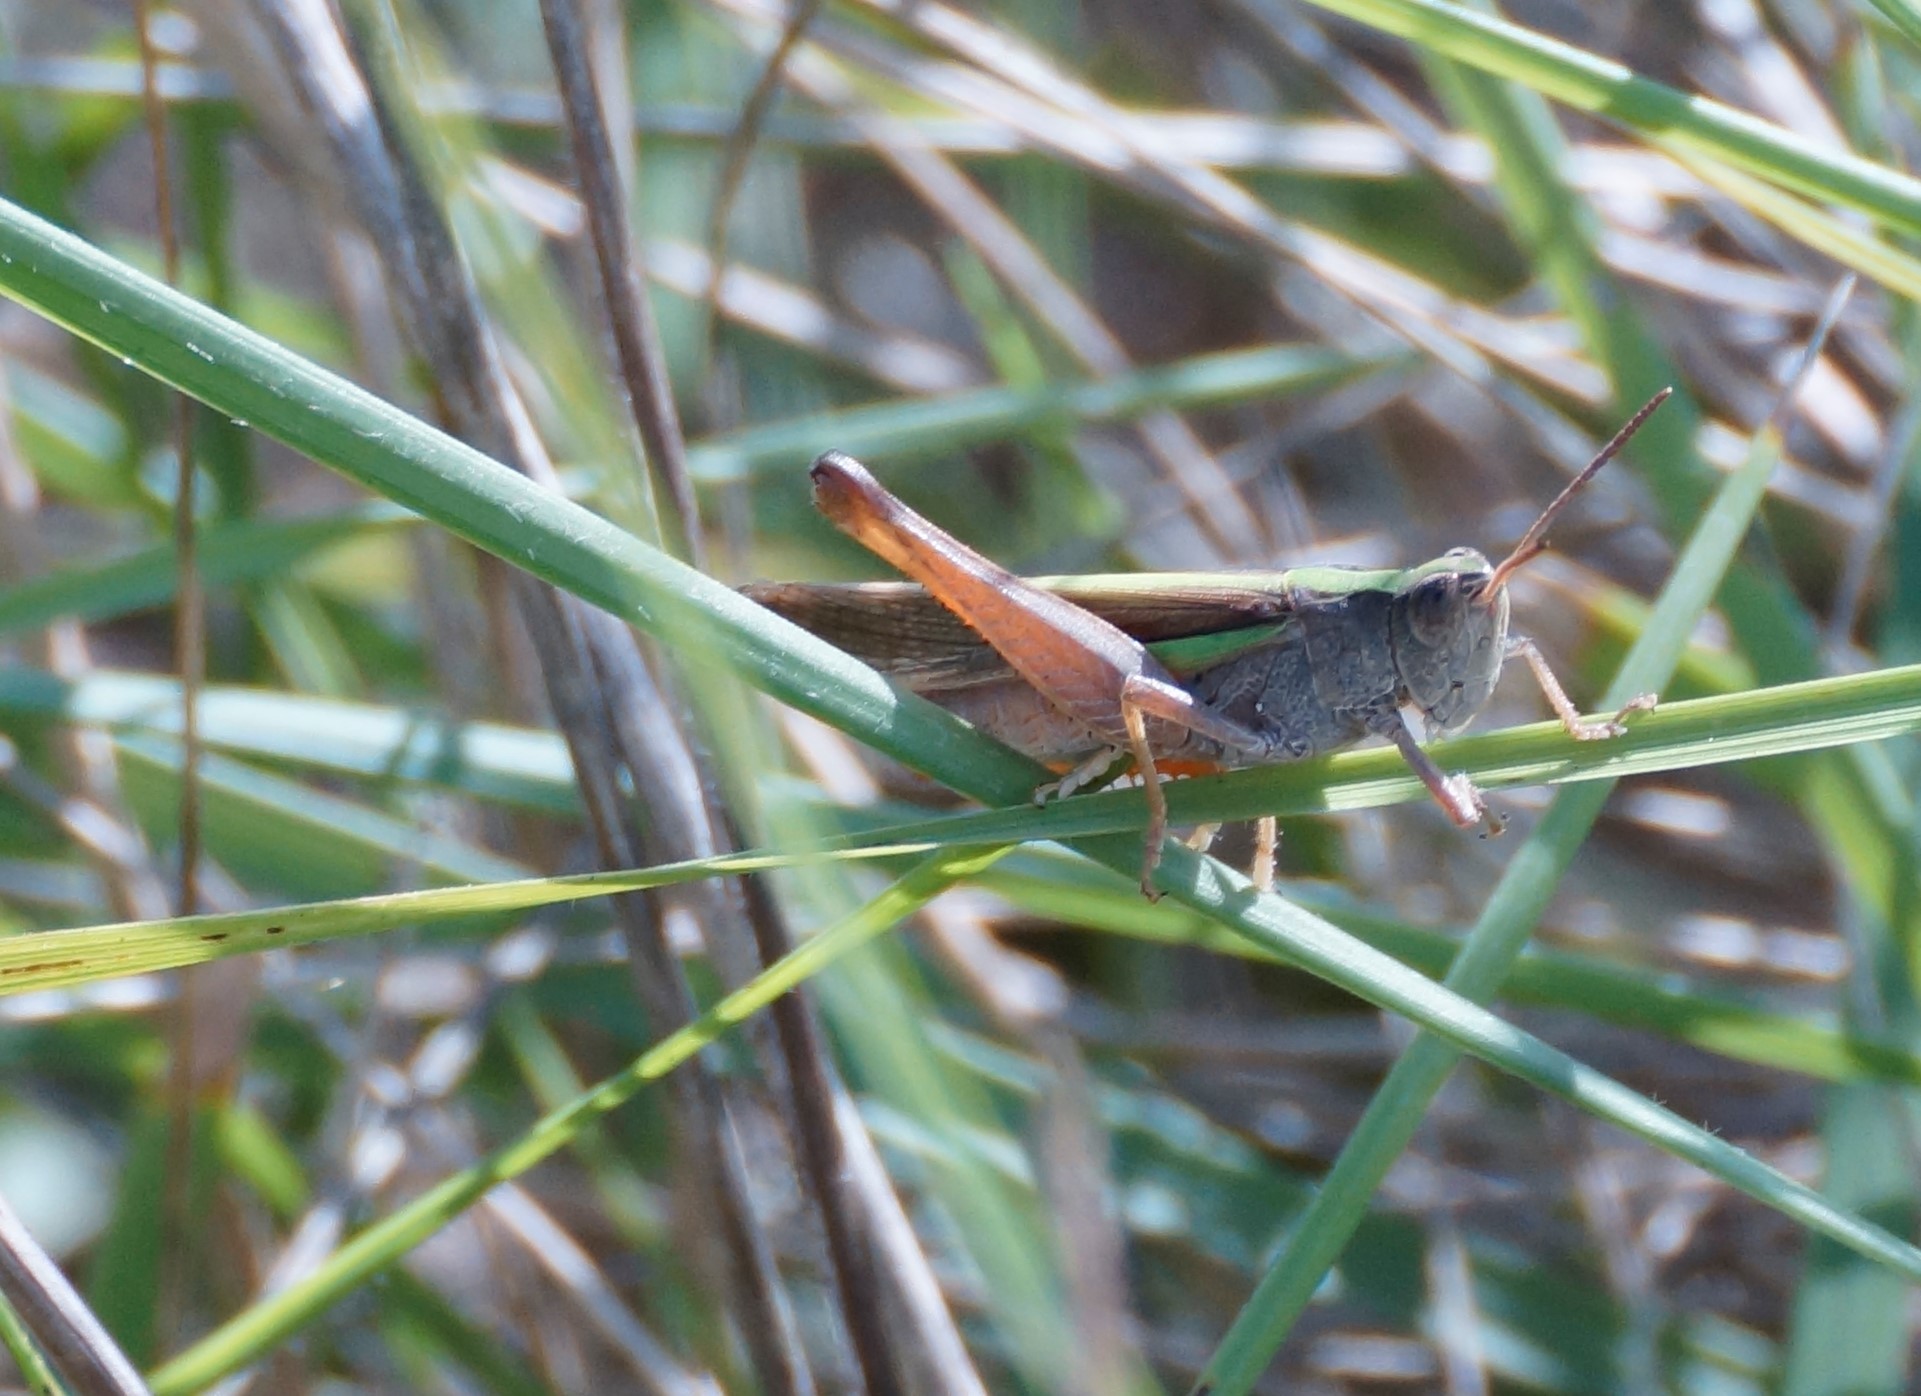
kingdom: Animalia
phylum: Arthropoda
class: Insecta
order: Orthoptera
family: Acrididae
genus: Schizobothrus
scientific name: Schizobothrus flavovittatus
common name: Disappearing grasshopper
